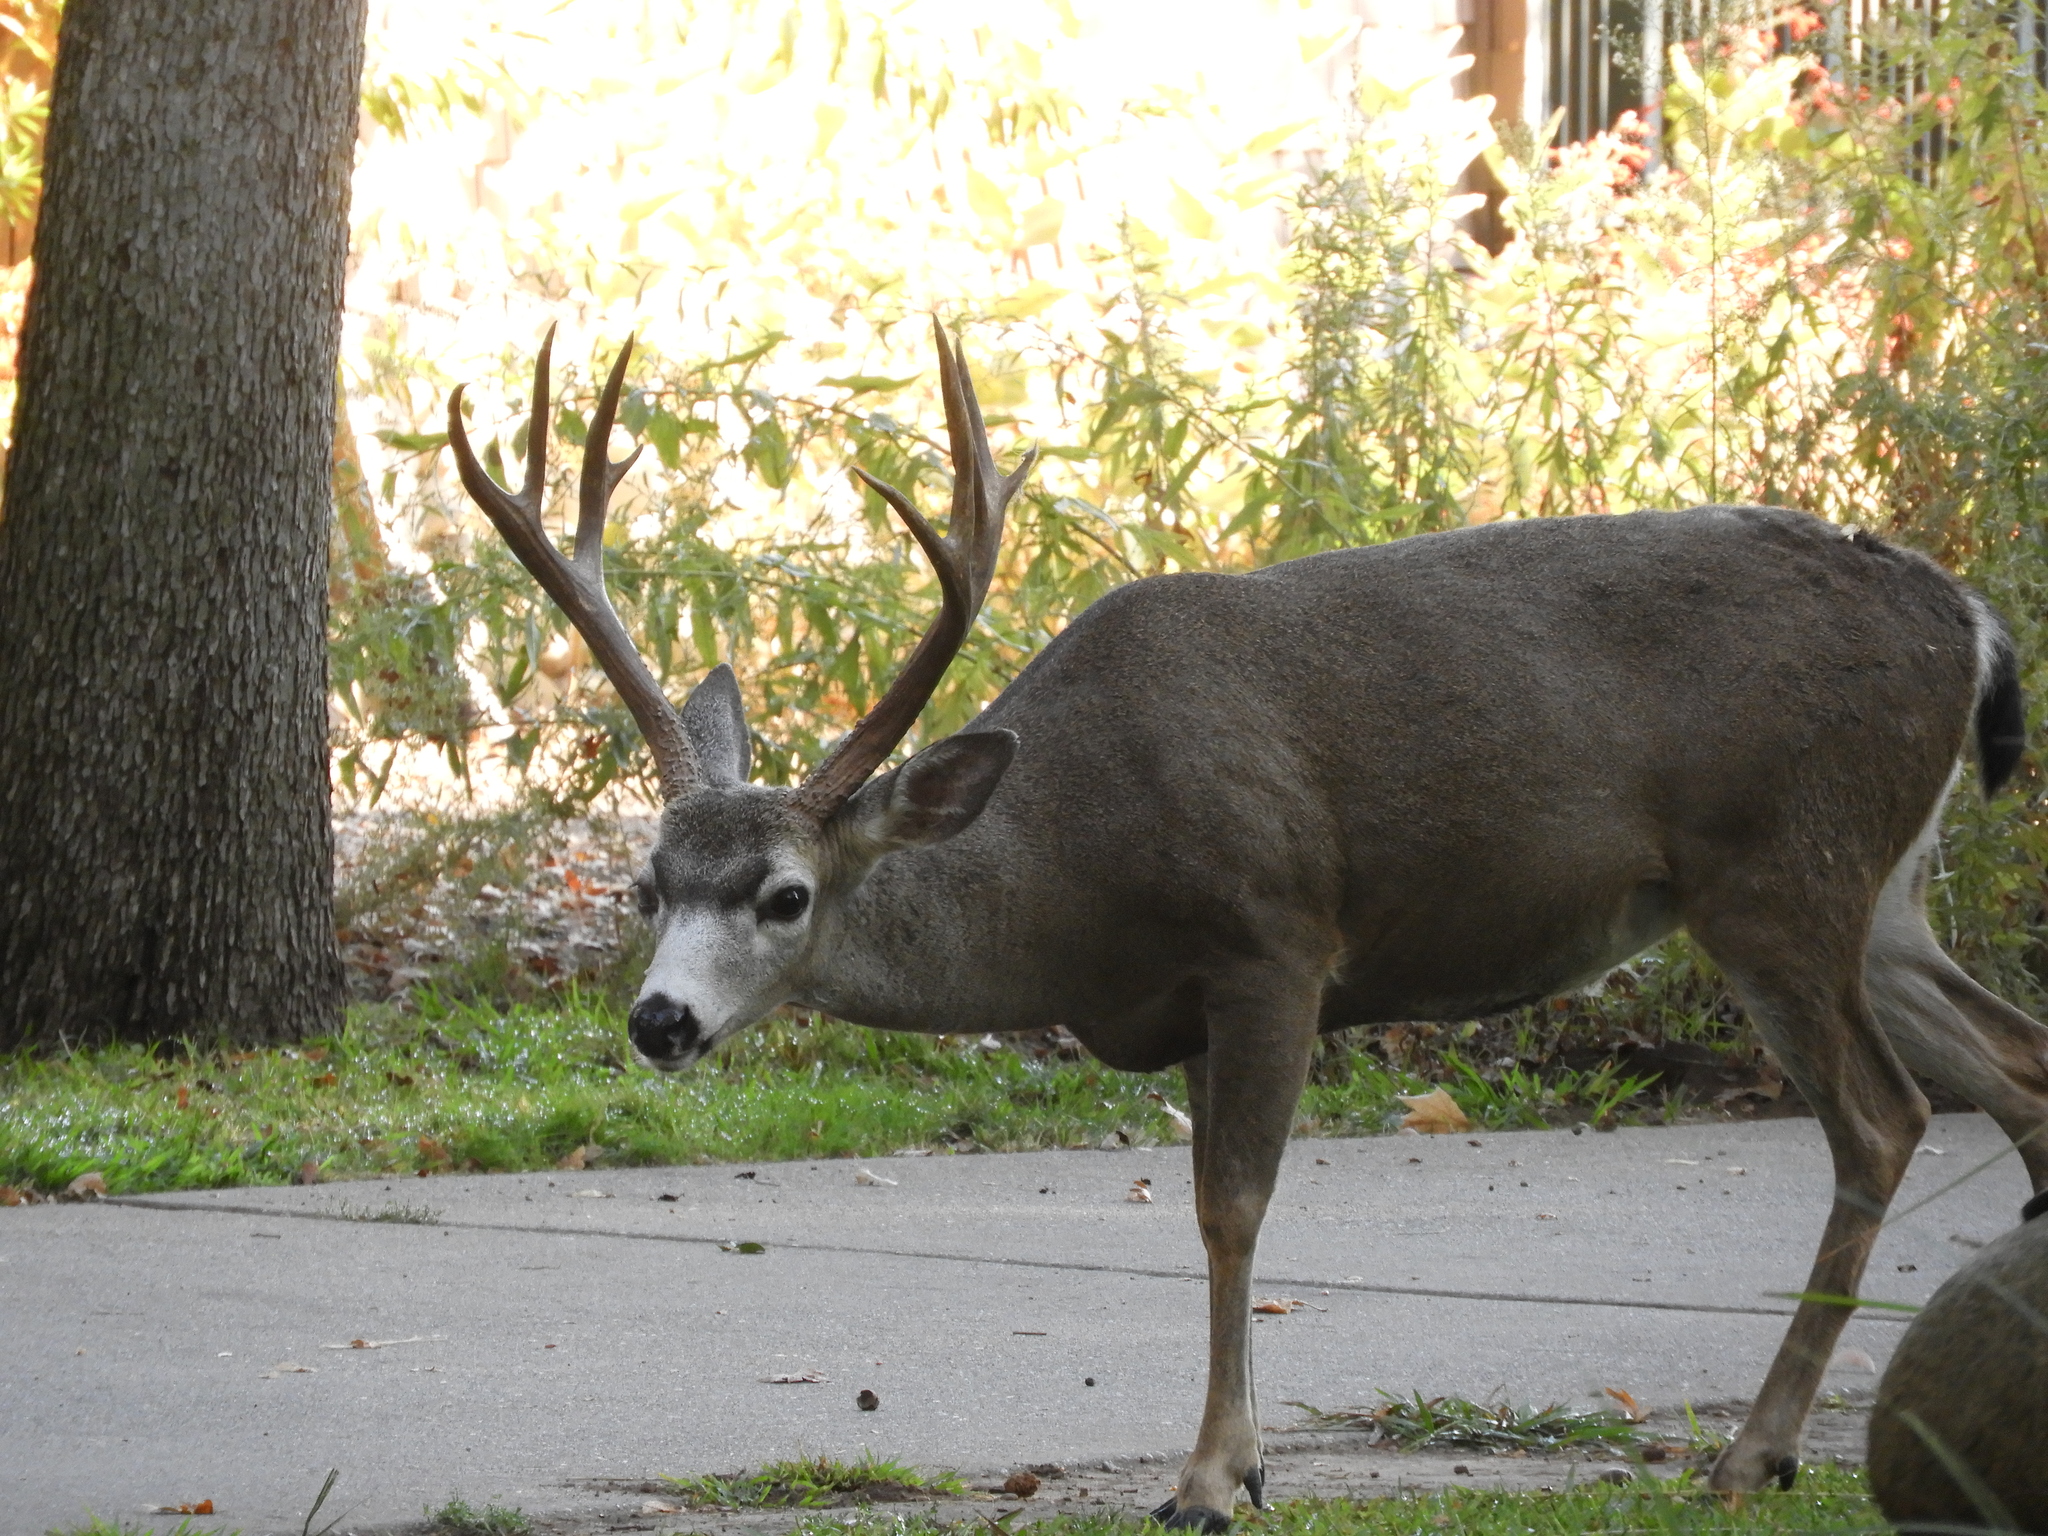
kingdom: Animalia
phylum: Chordata
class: Mammalia
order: Artiodactyla
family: Cervidae
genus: Odocoileus
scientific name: Odocoileus hemionus
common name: Mule deer
